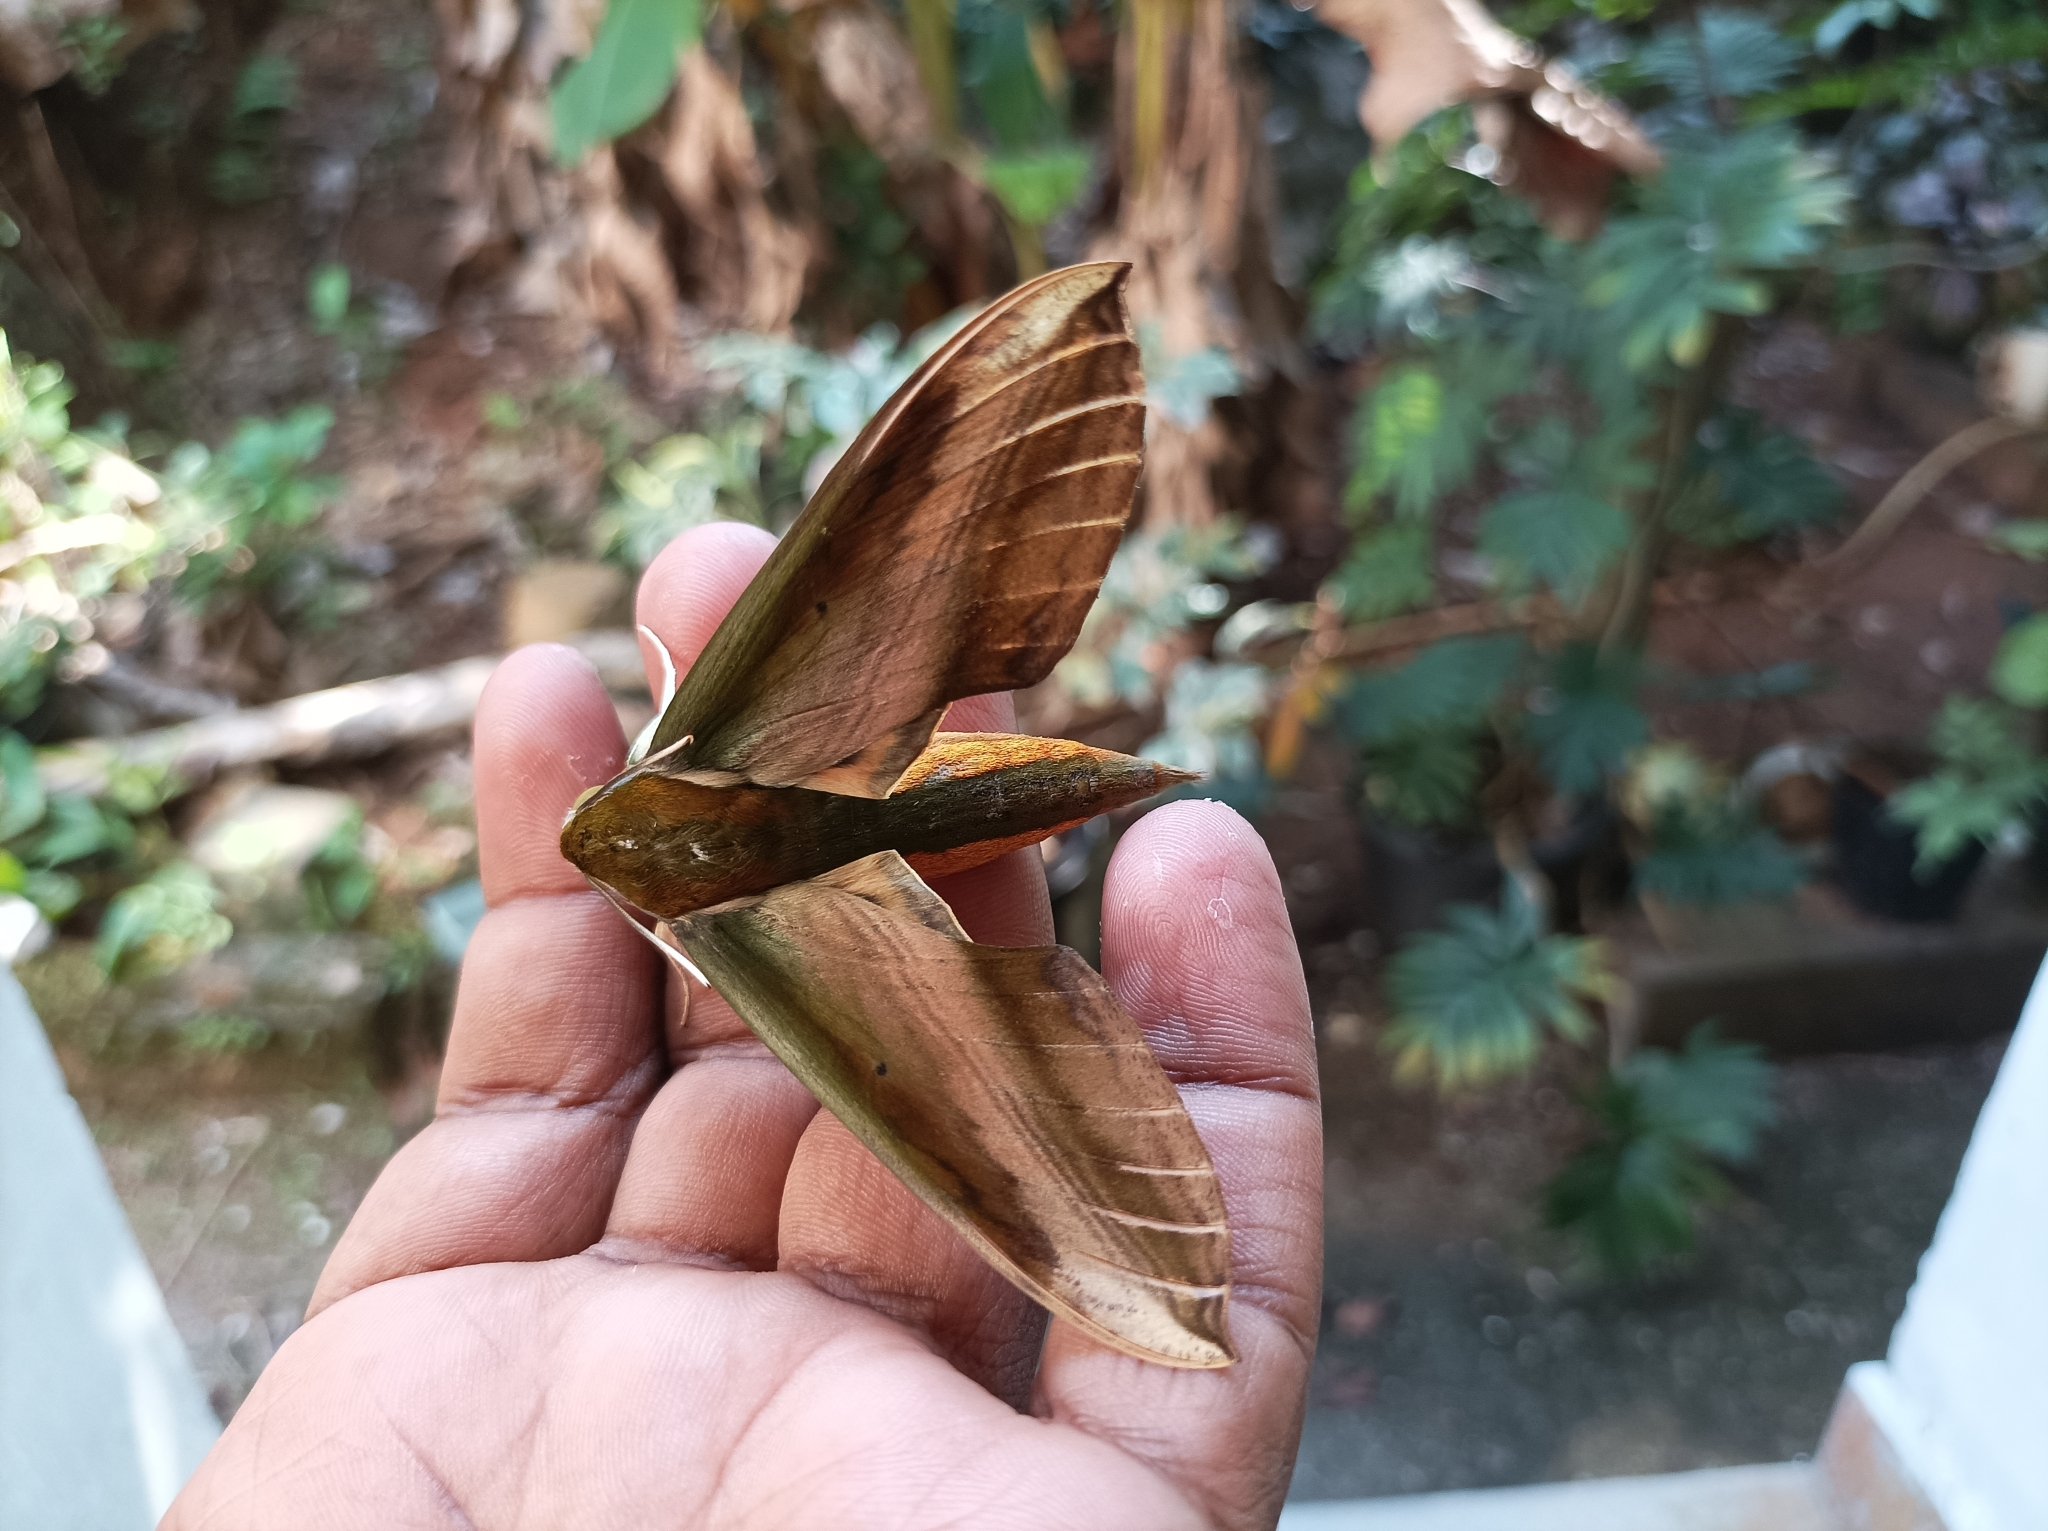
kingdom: Animalia
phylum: Arthropoda
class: Insecta
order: Lepidoptera
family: Sphingidae
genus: Theretra
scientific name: Theretra nessus
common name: Yam hawk moth
